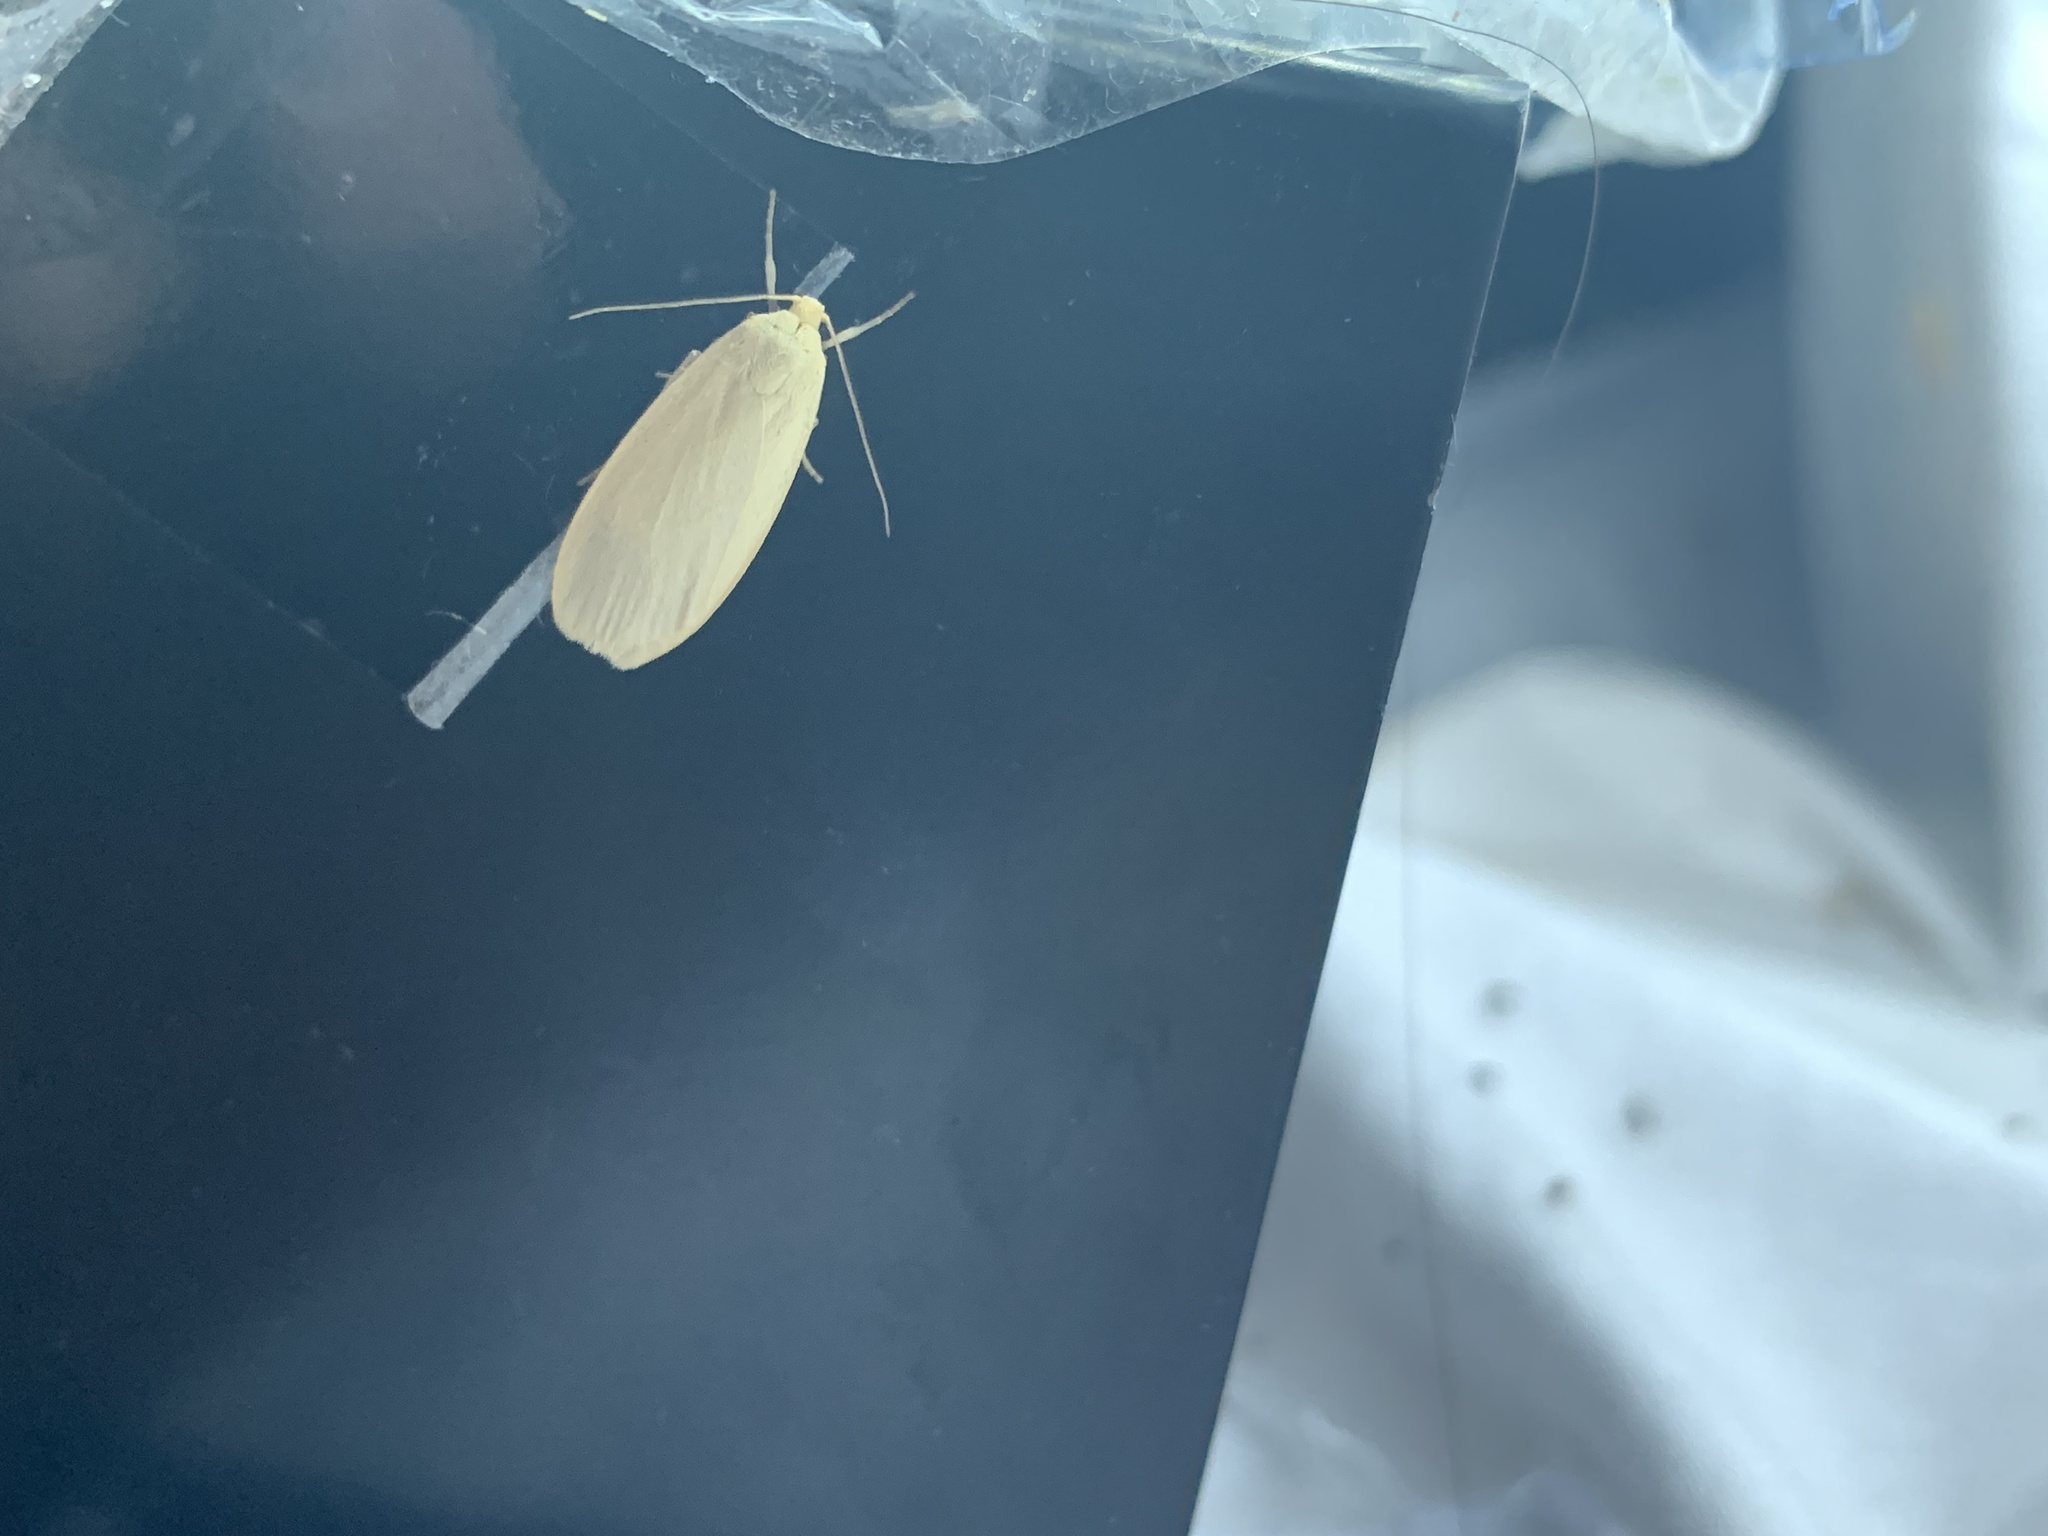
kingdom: Animalia
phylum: Arthropoda
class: Insecta
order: Lepidoptera
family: Erebidae
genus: Collita
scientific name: Collita griseola
